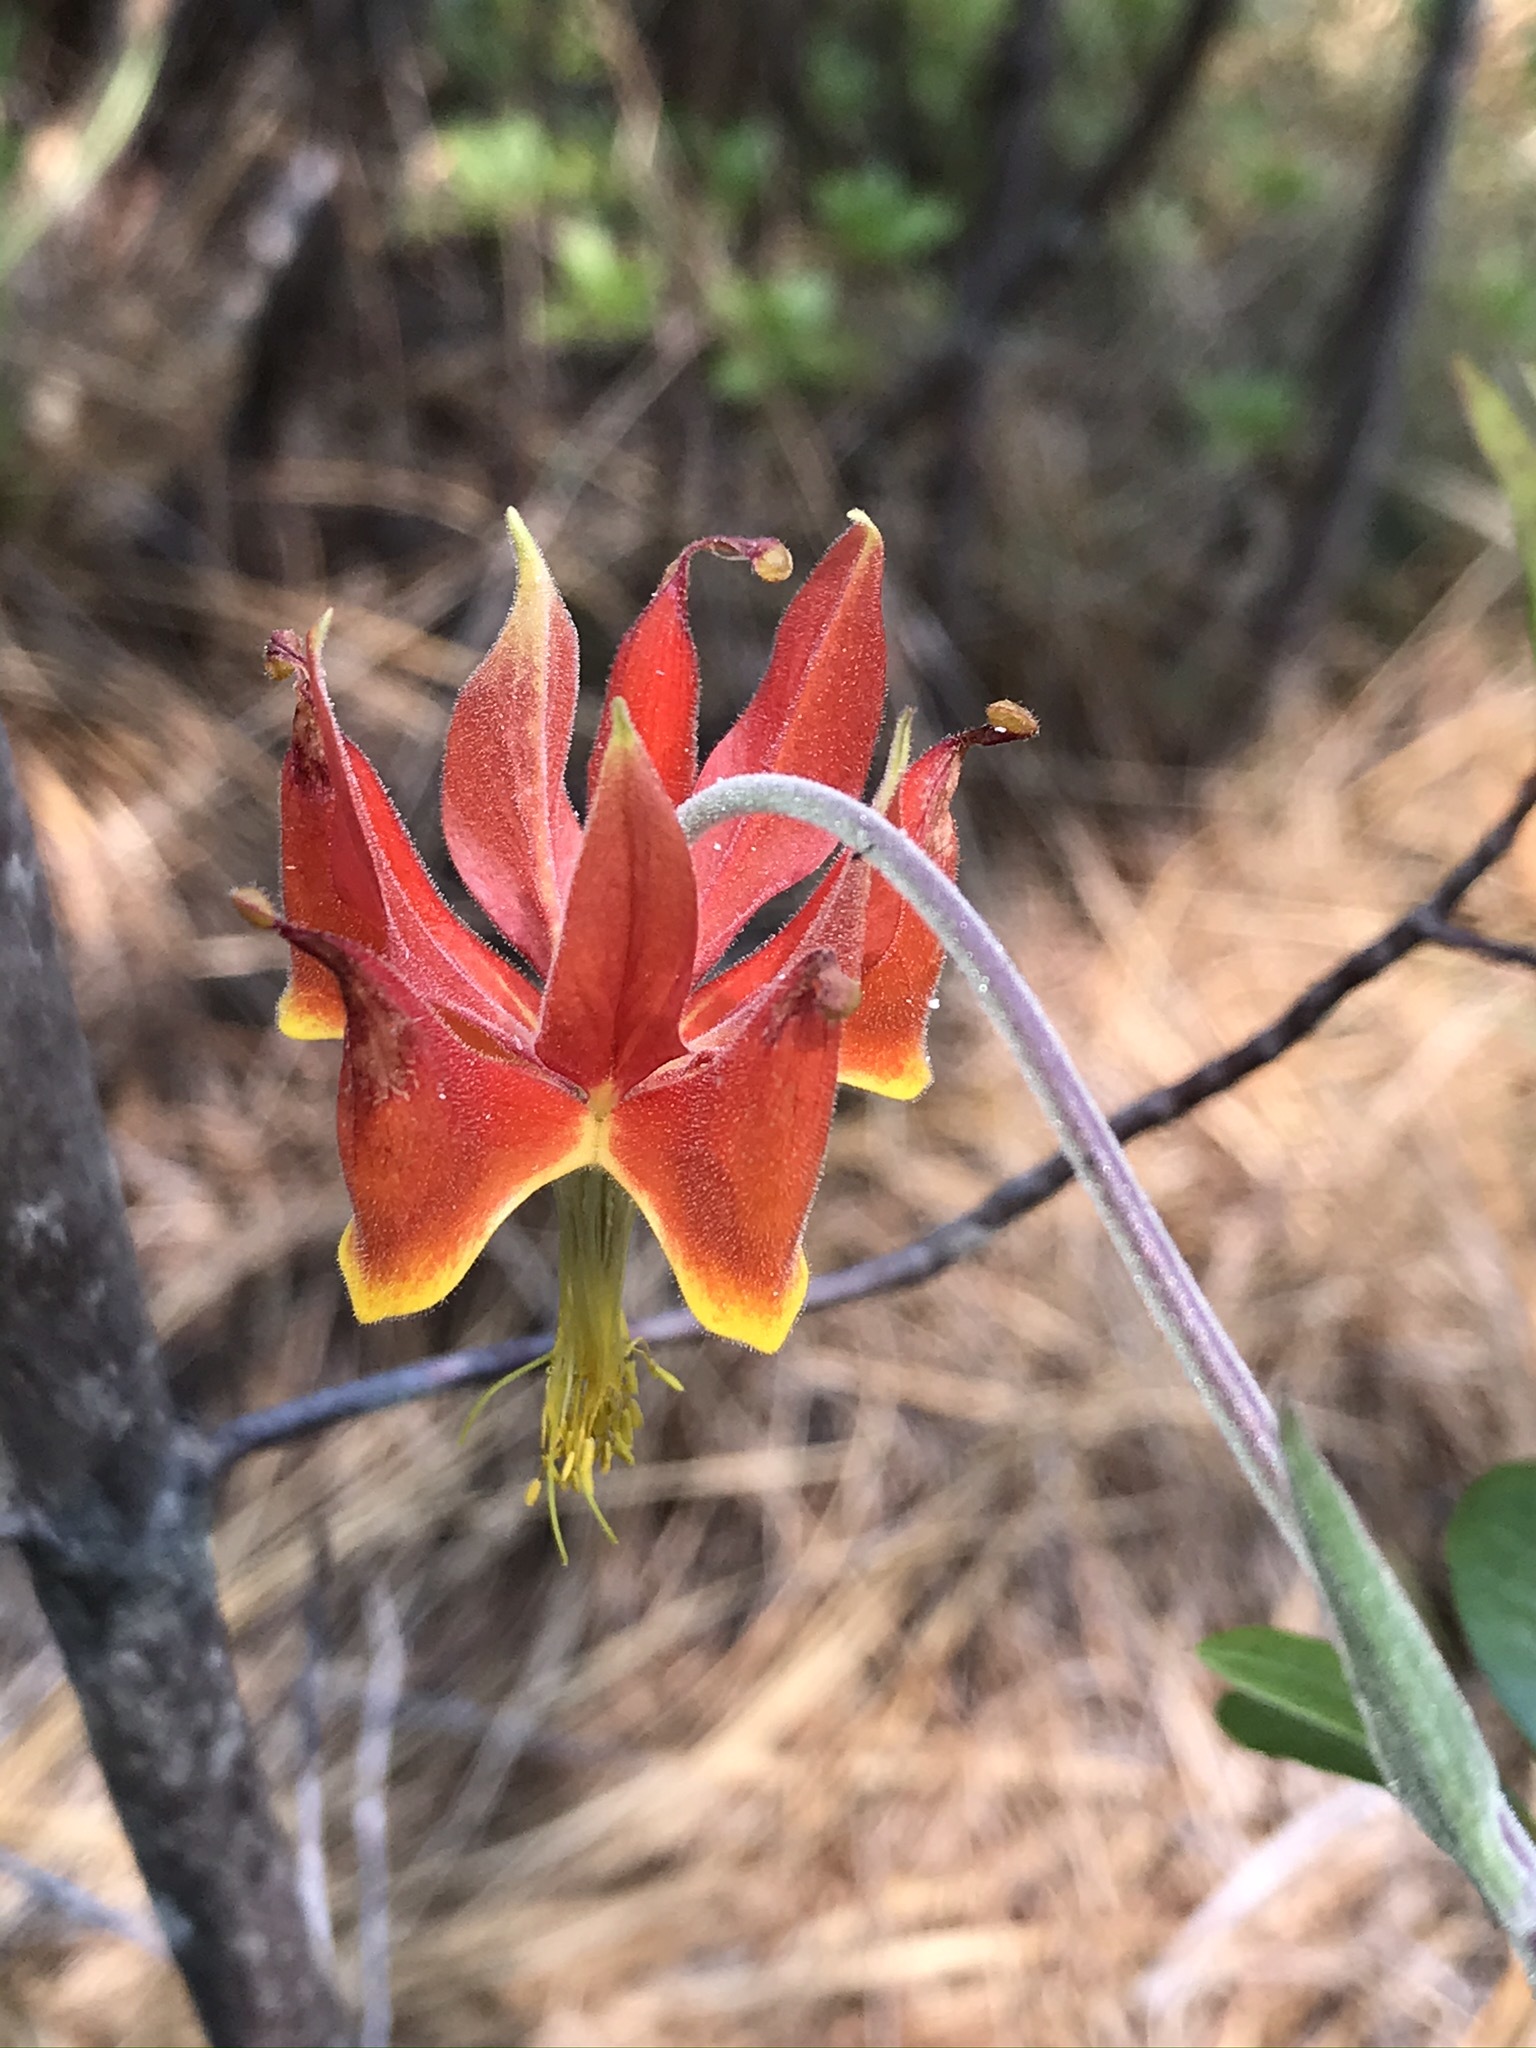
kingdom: Plantae
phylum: Tracheophyta
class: Magnoliopsida
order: Ranunculales
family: Ranunculaceae
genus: Aquilegia
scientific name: Aquilegia eximia
